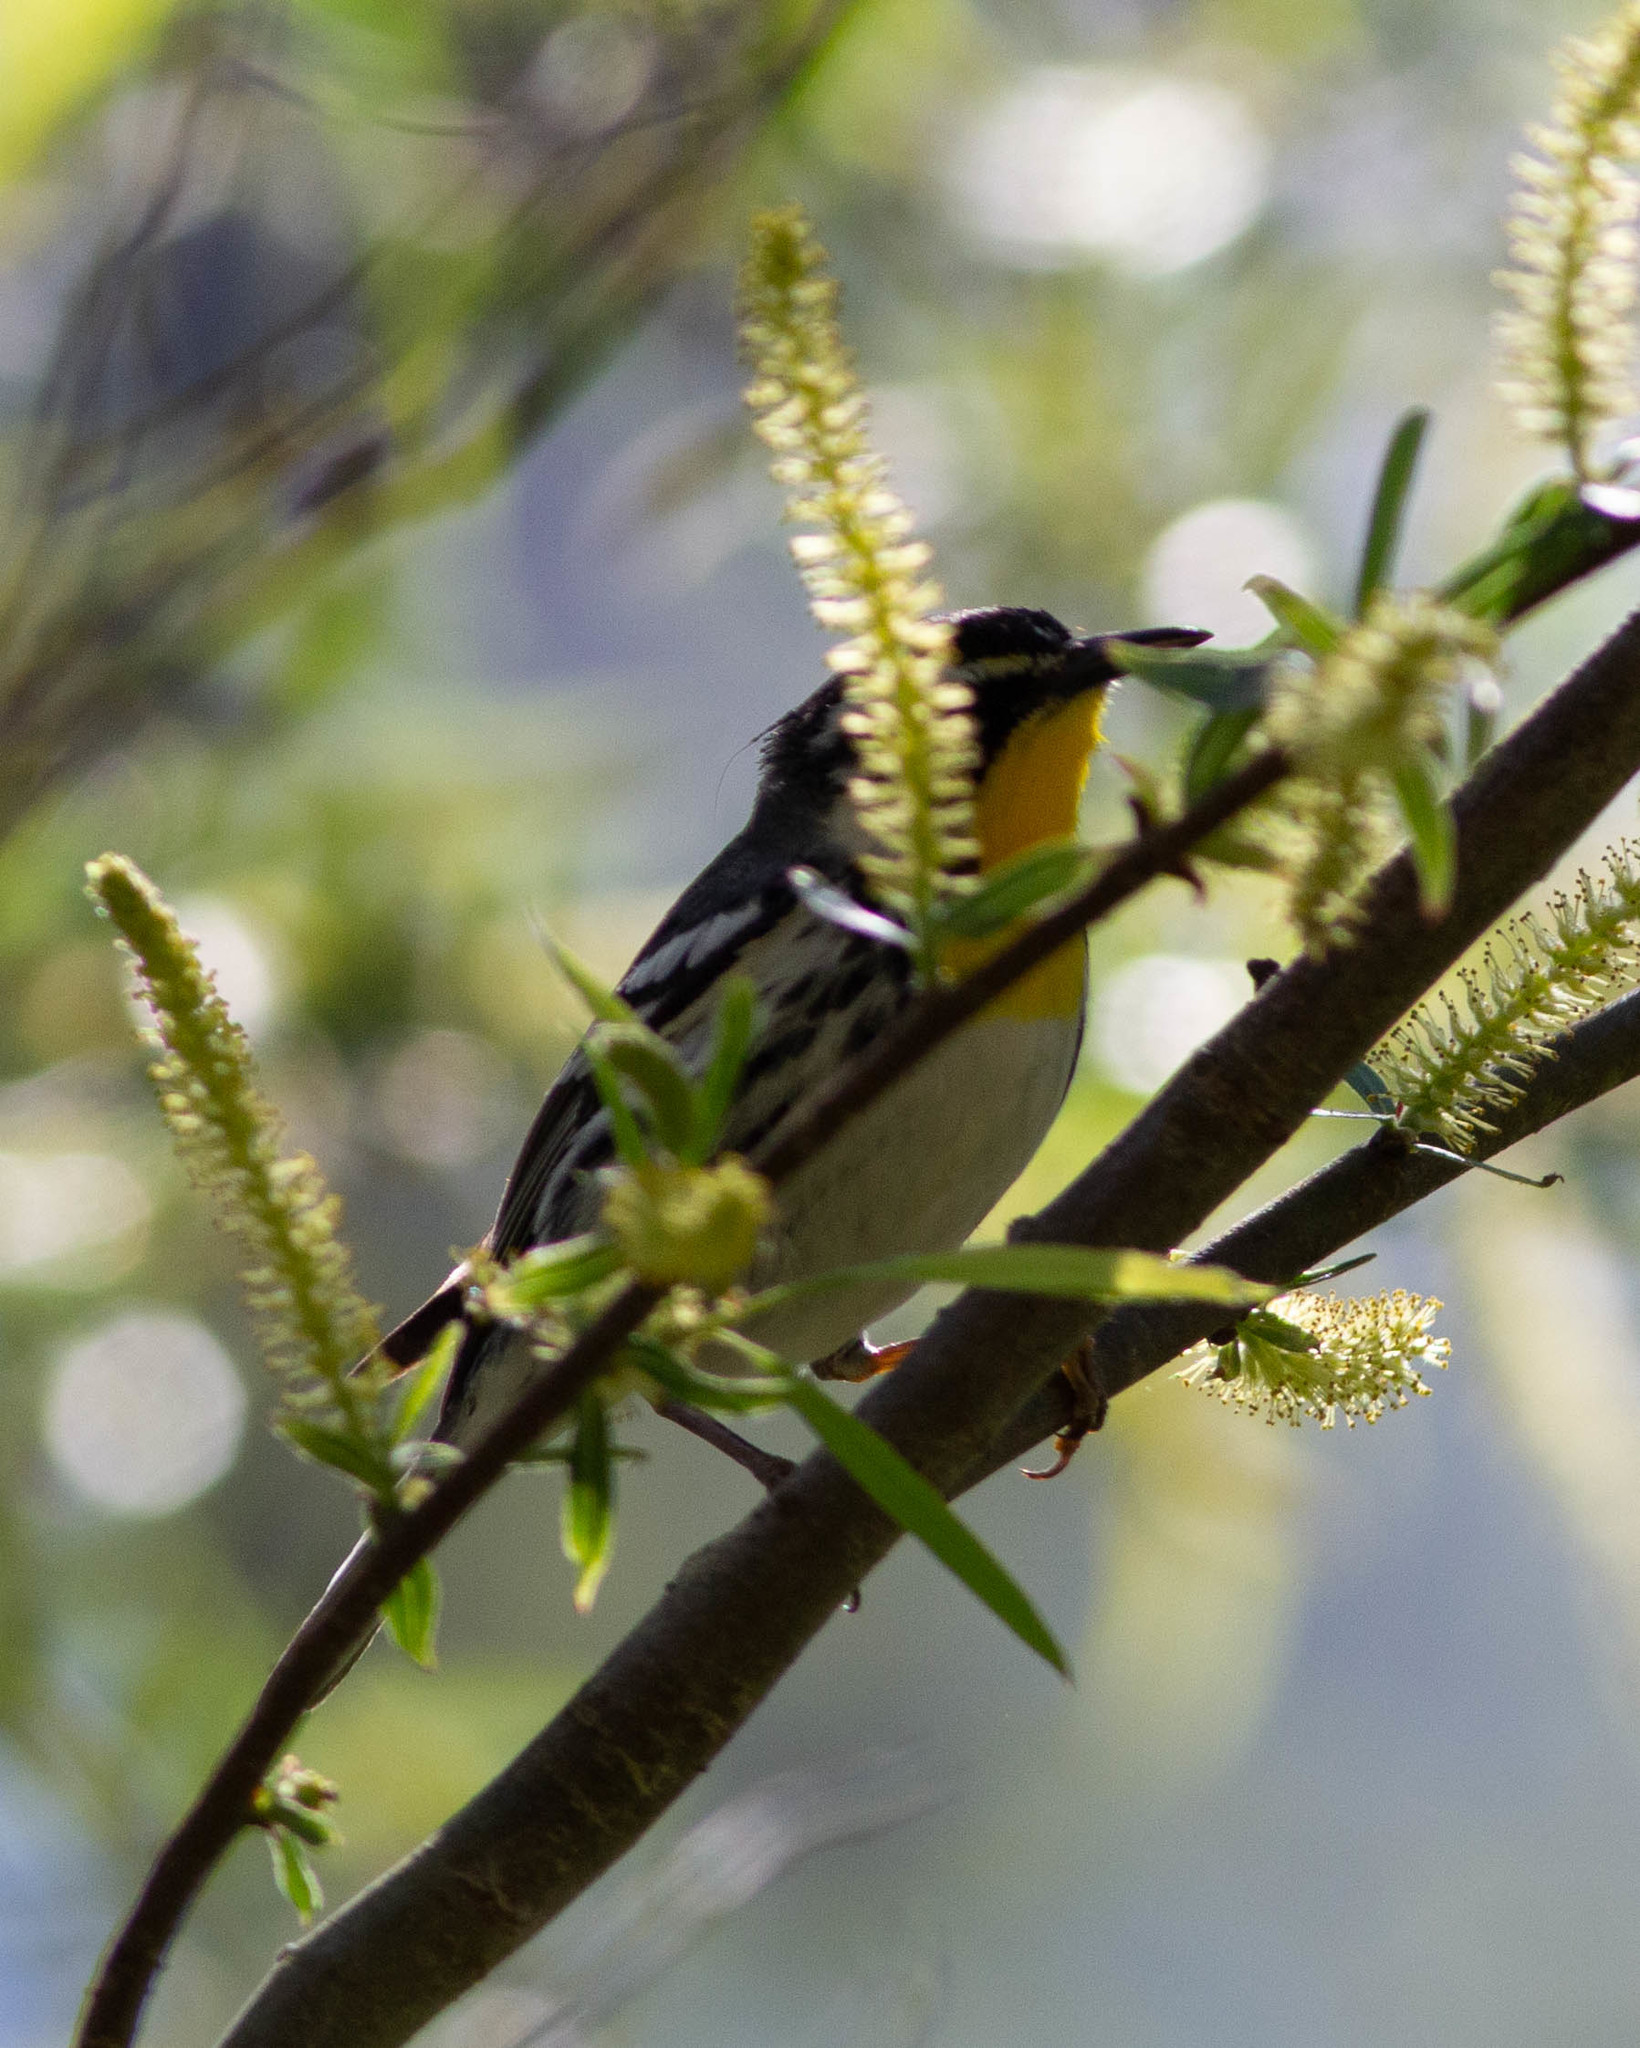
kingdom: Animalia
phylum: Chordata
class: Aves
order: Passeriformes
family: Parulidae
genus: Setophaga
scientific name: Setophaga dominica
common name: Yellow-throated warbler
